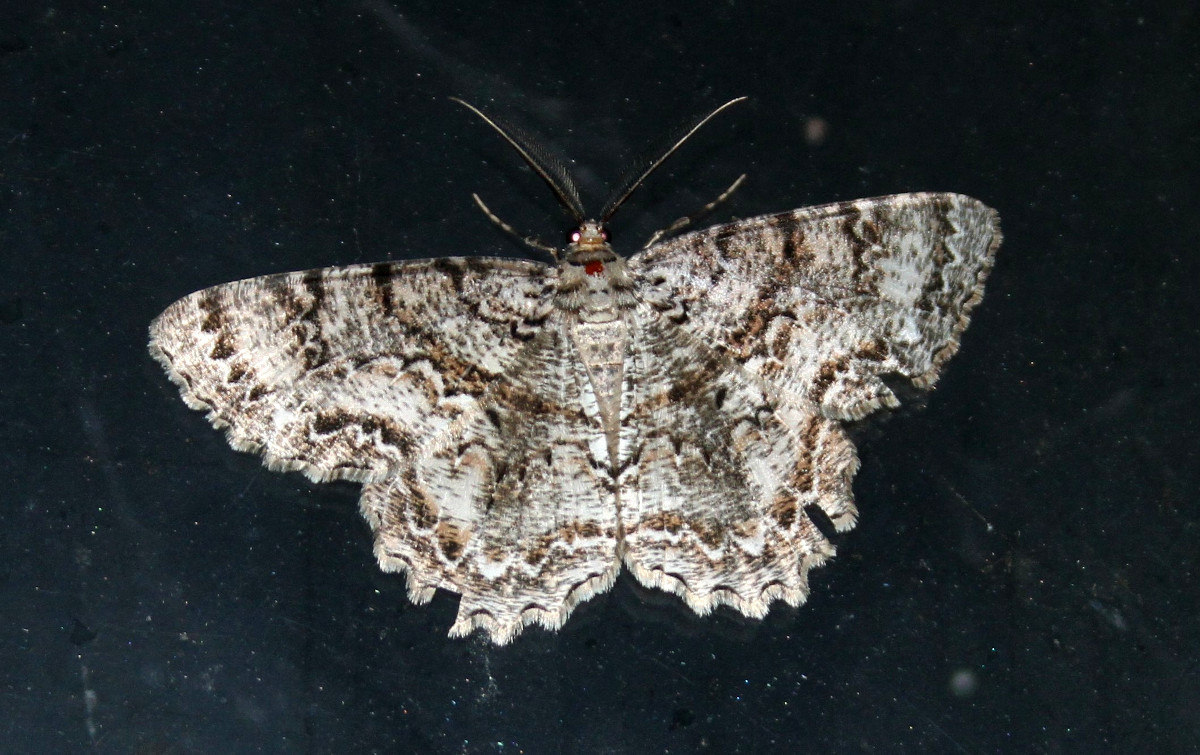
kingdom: Animalia
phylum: Arthropoda
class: Insecta
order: Lepidoptera
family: Geometridae
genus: Epimecis
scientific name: Epimecis hortaria
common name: Tulip-tree beauty
